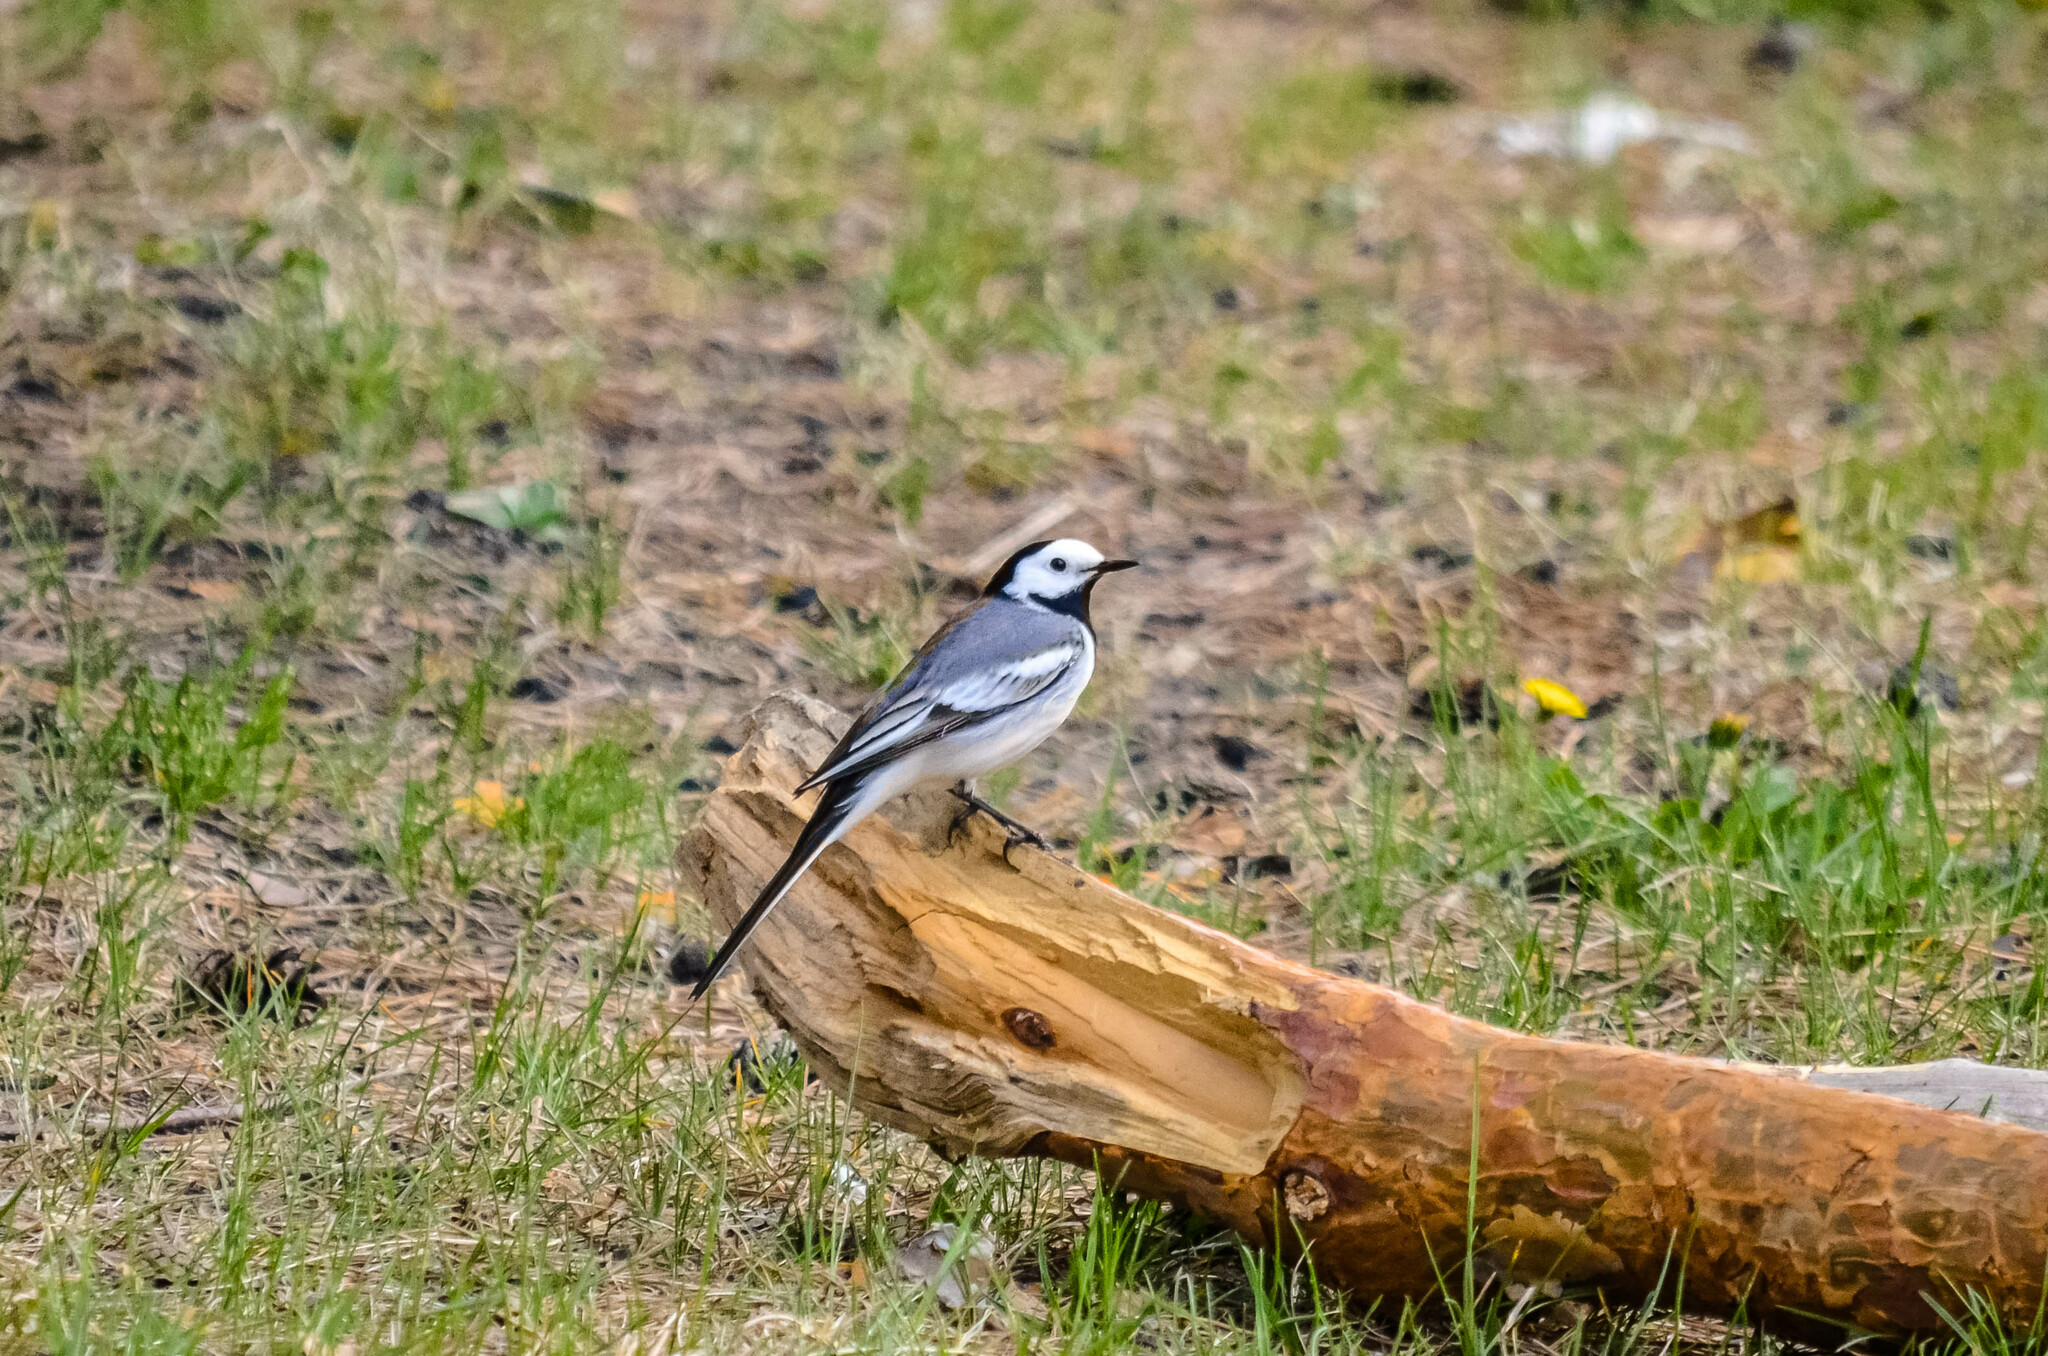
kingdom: Animalia
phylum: Chordata
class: Aves
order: Passeriformes
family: Motacillidae
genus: Motacilla
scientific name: Motacilla alba
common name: White wagtail
